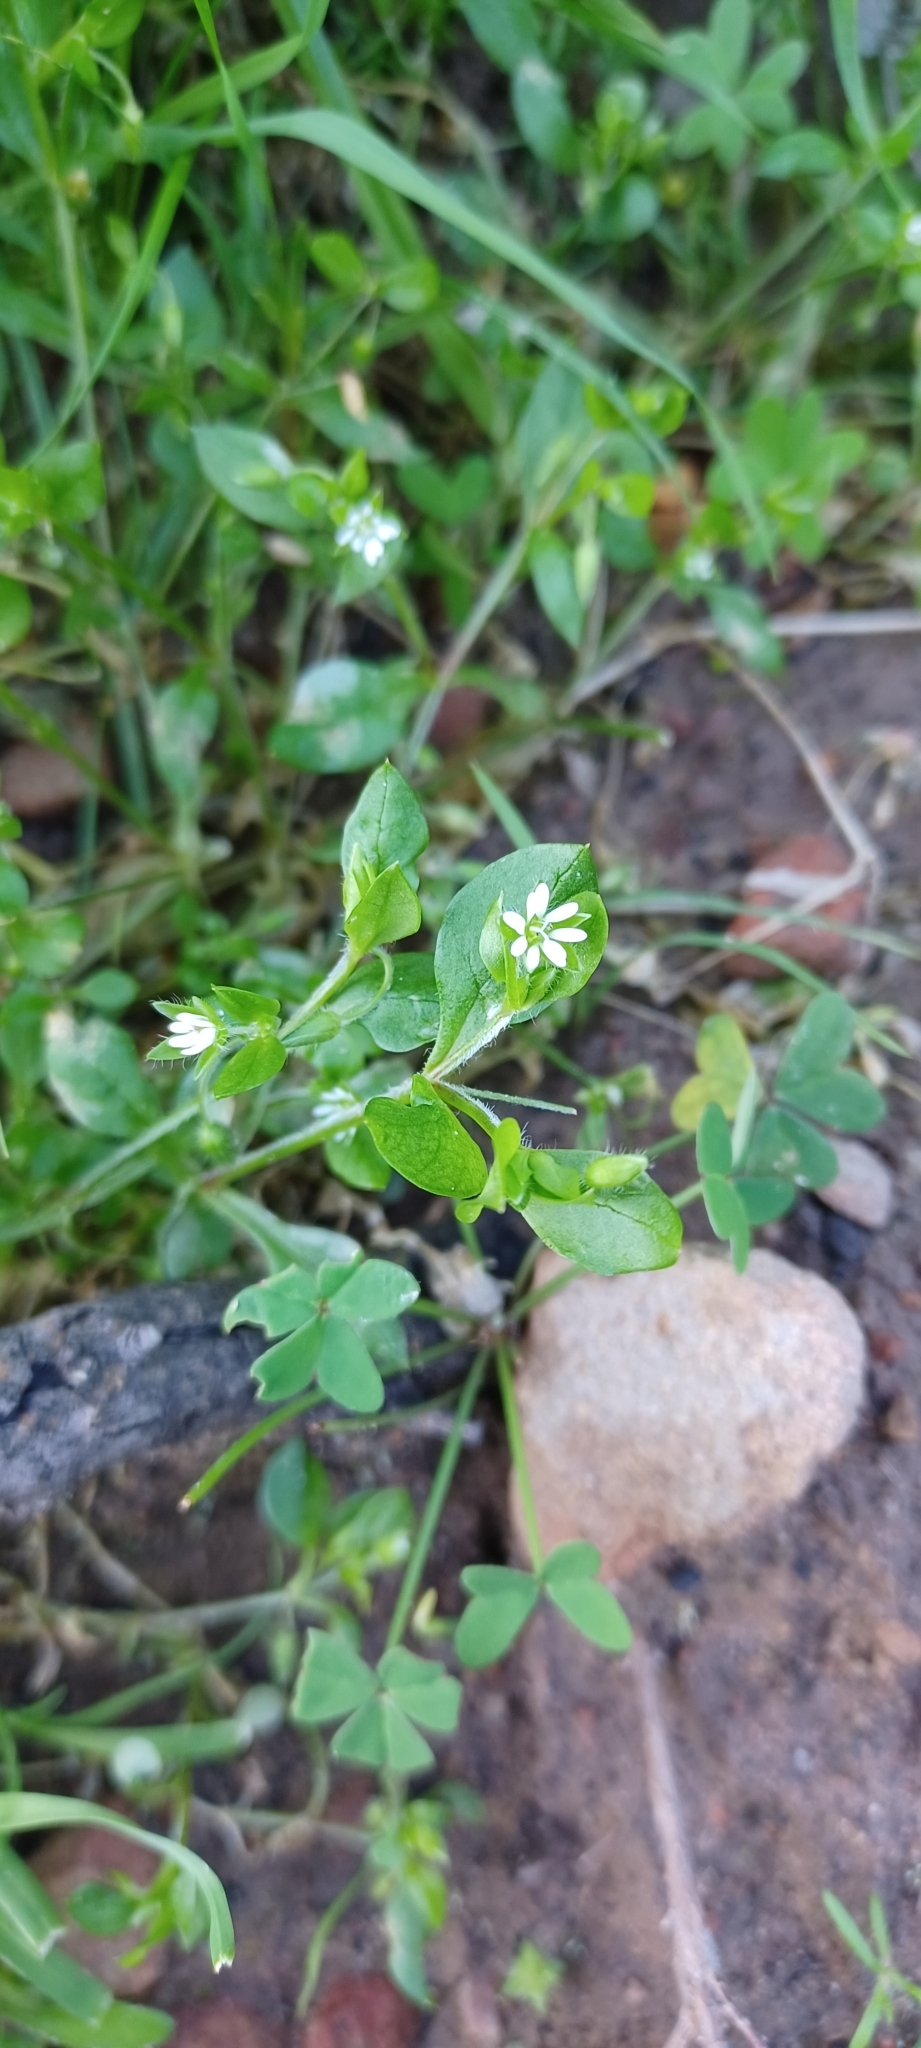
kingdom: Plantae
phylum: Tracheophyta
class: Magnoliopsida
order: Caryophyllales
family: Caryophyllaceae
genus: Stellaria
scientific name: Stellaria media
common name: Common chickweed
